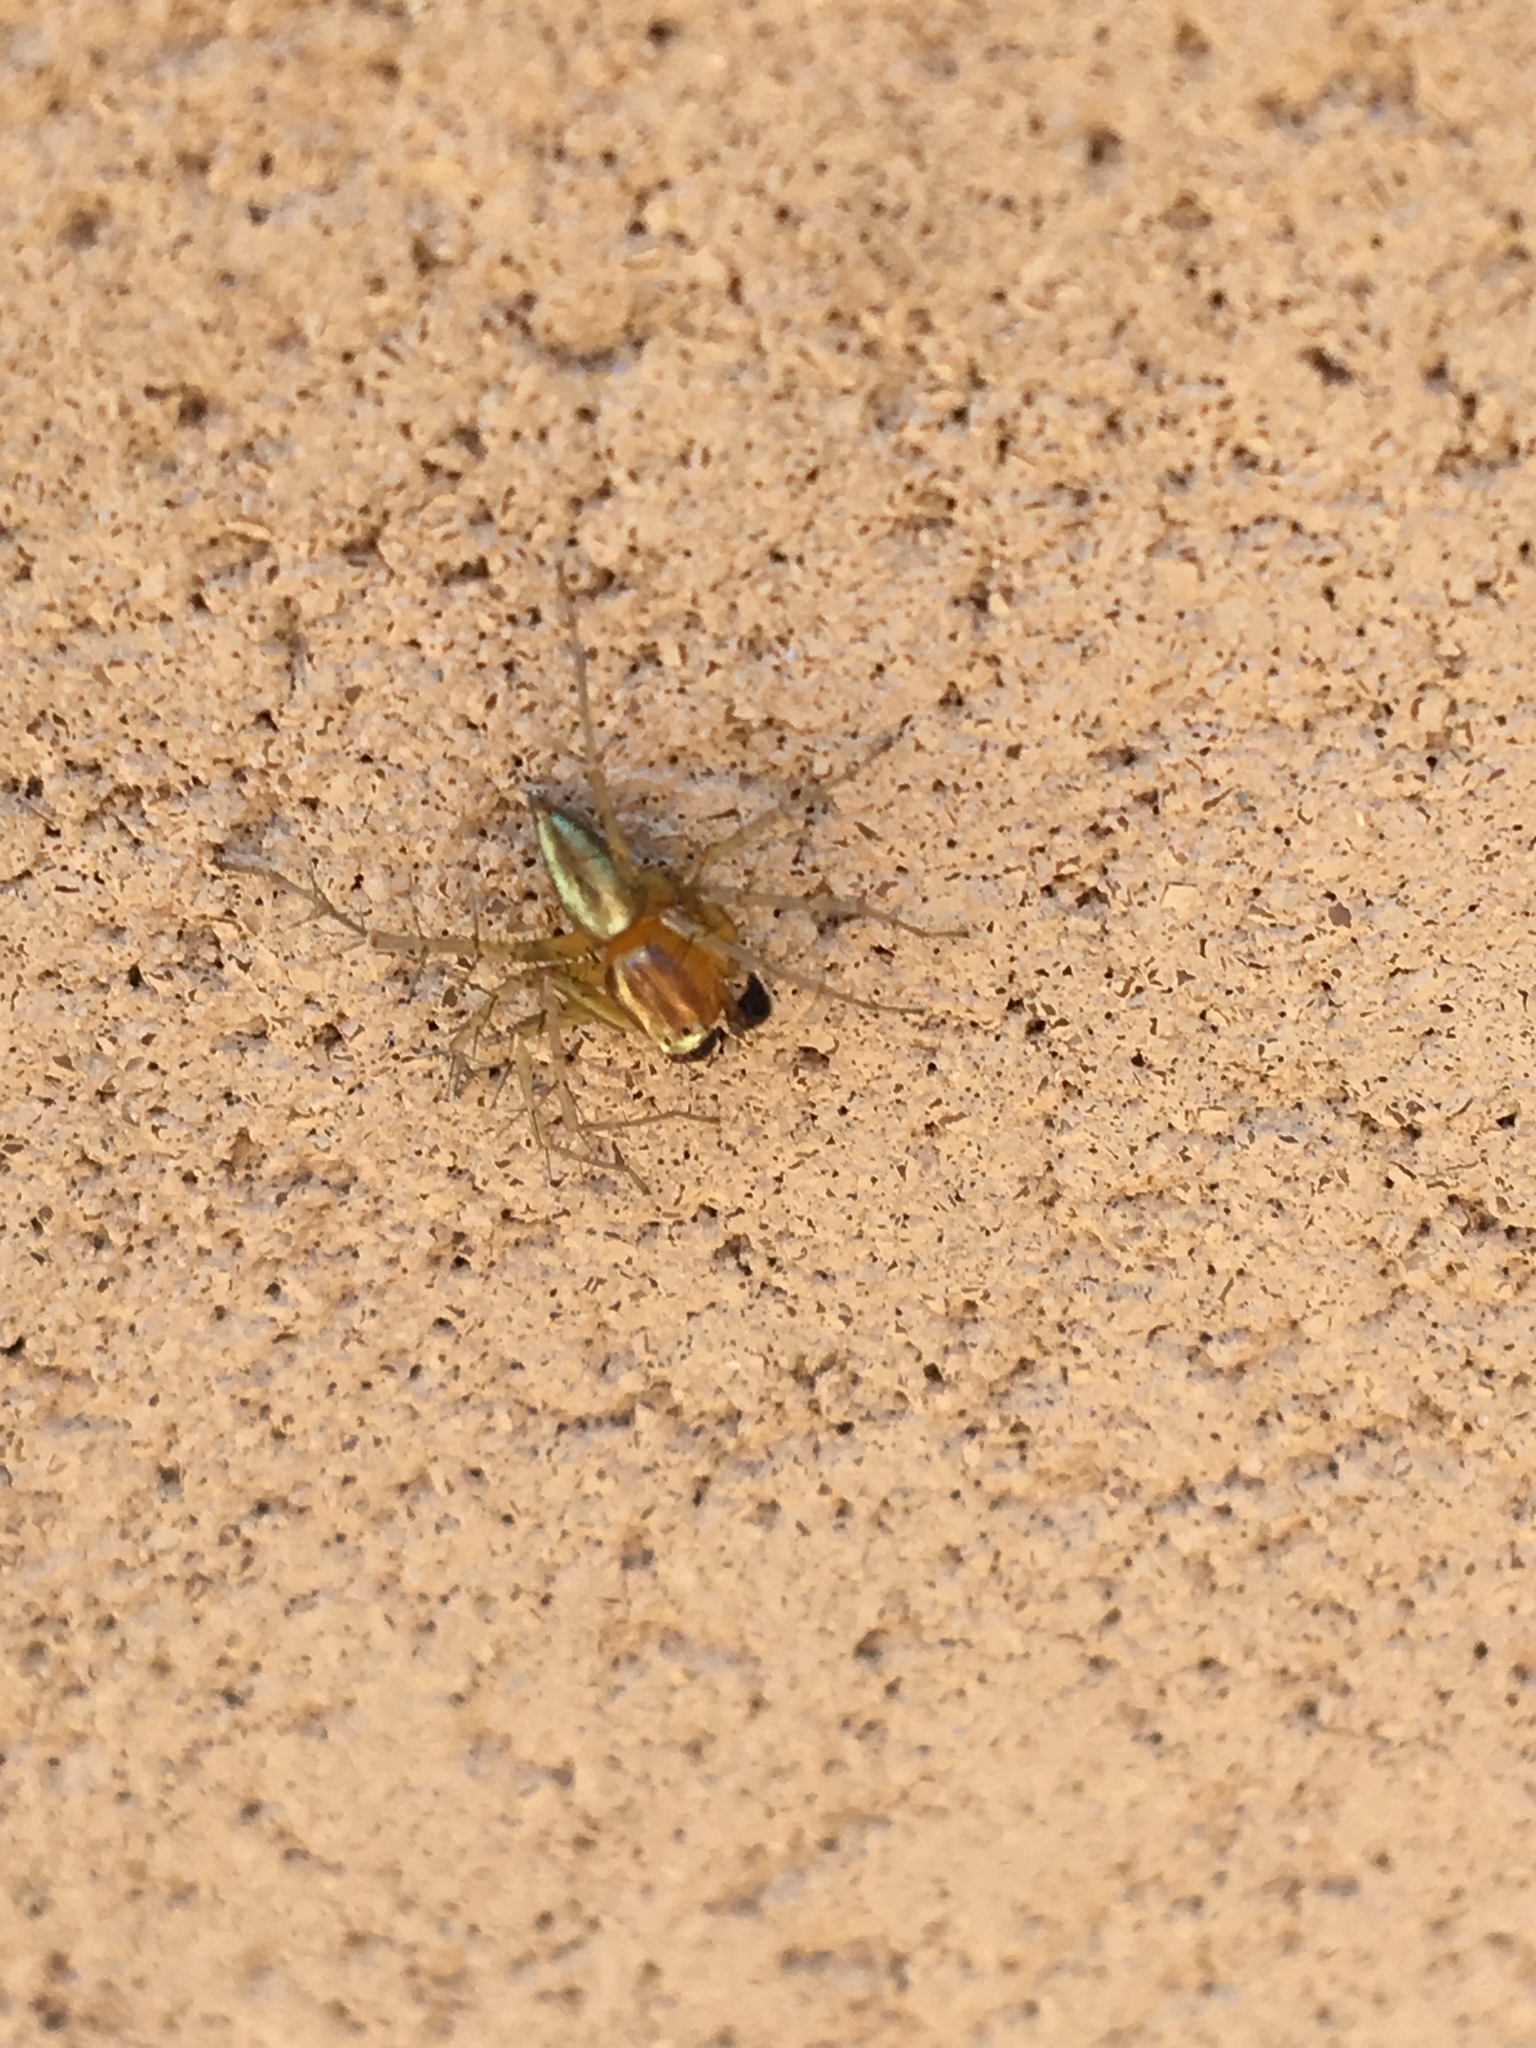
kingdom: Animalia
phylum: Arthropoda
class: Arachnida
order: Araneae
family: Oxyopidae
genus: Oxyopes
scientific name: Oxyopes salticus
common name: Lynx spiders
